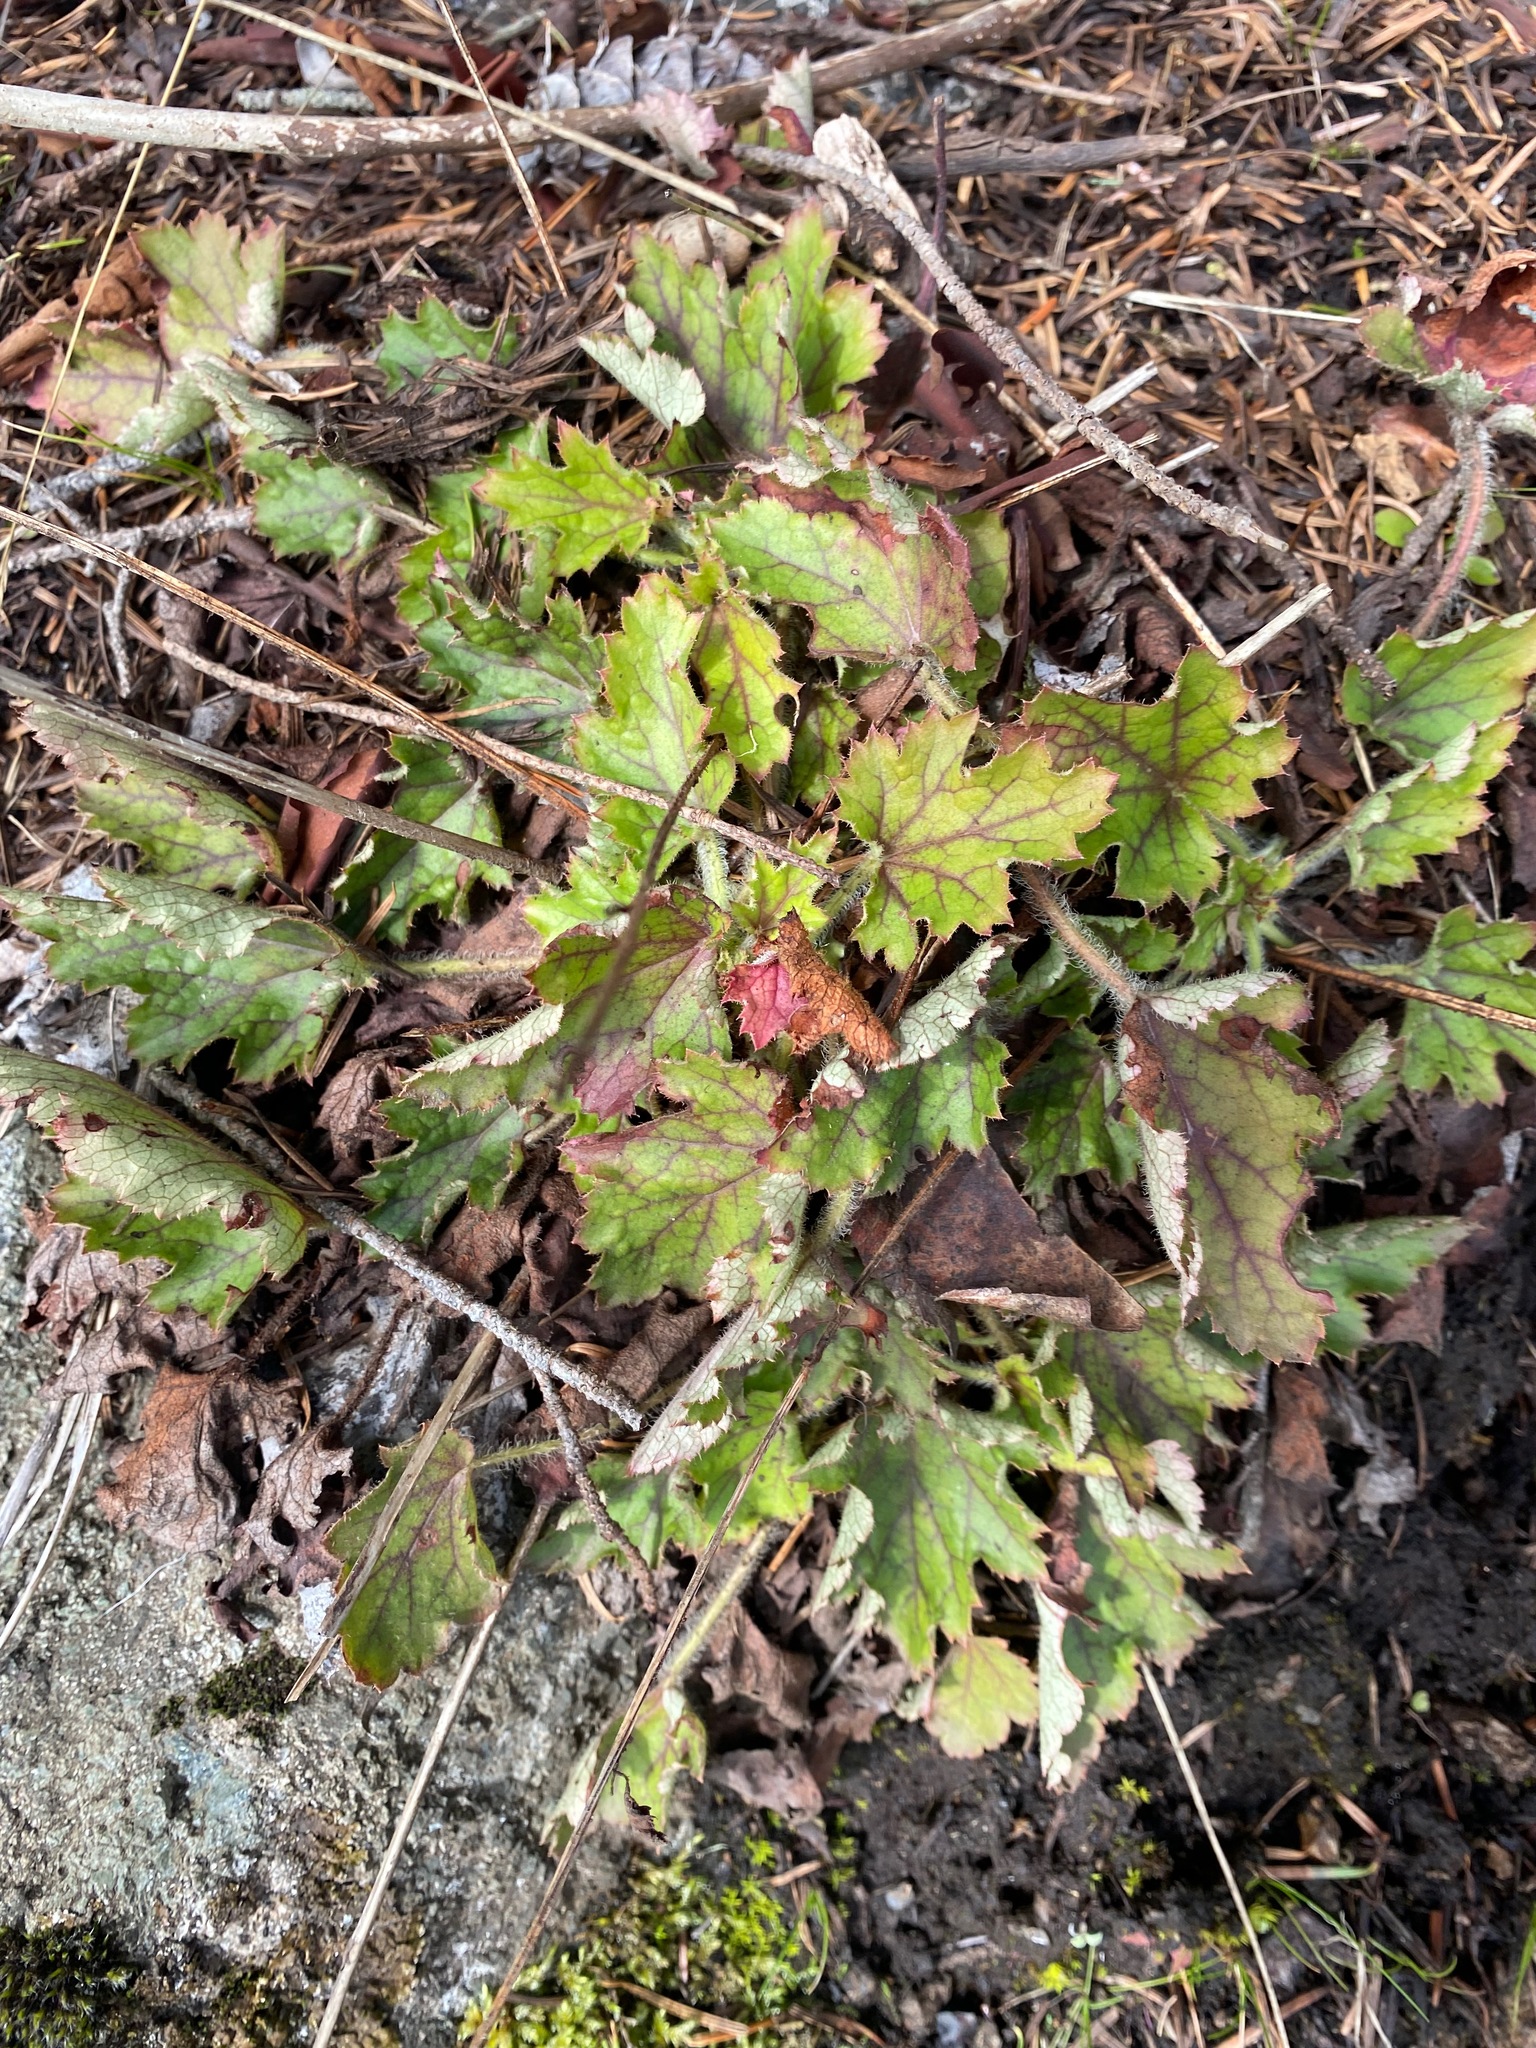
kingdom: Plantae
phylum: Tracheophyta
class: Magnoliopsida
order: Saxifragales
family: Saxifragaceae
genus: Heuchera
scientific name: Heuchera micrantha
